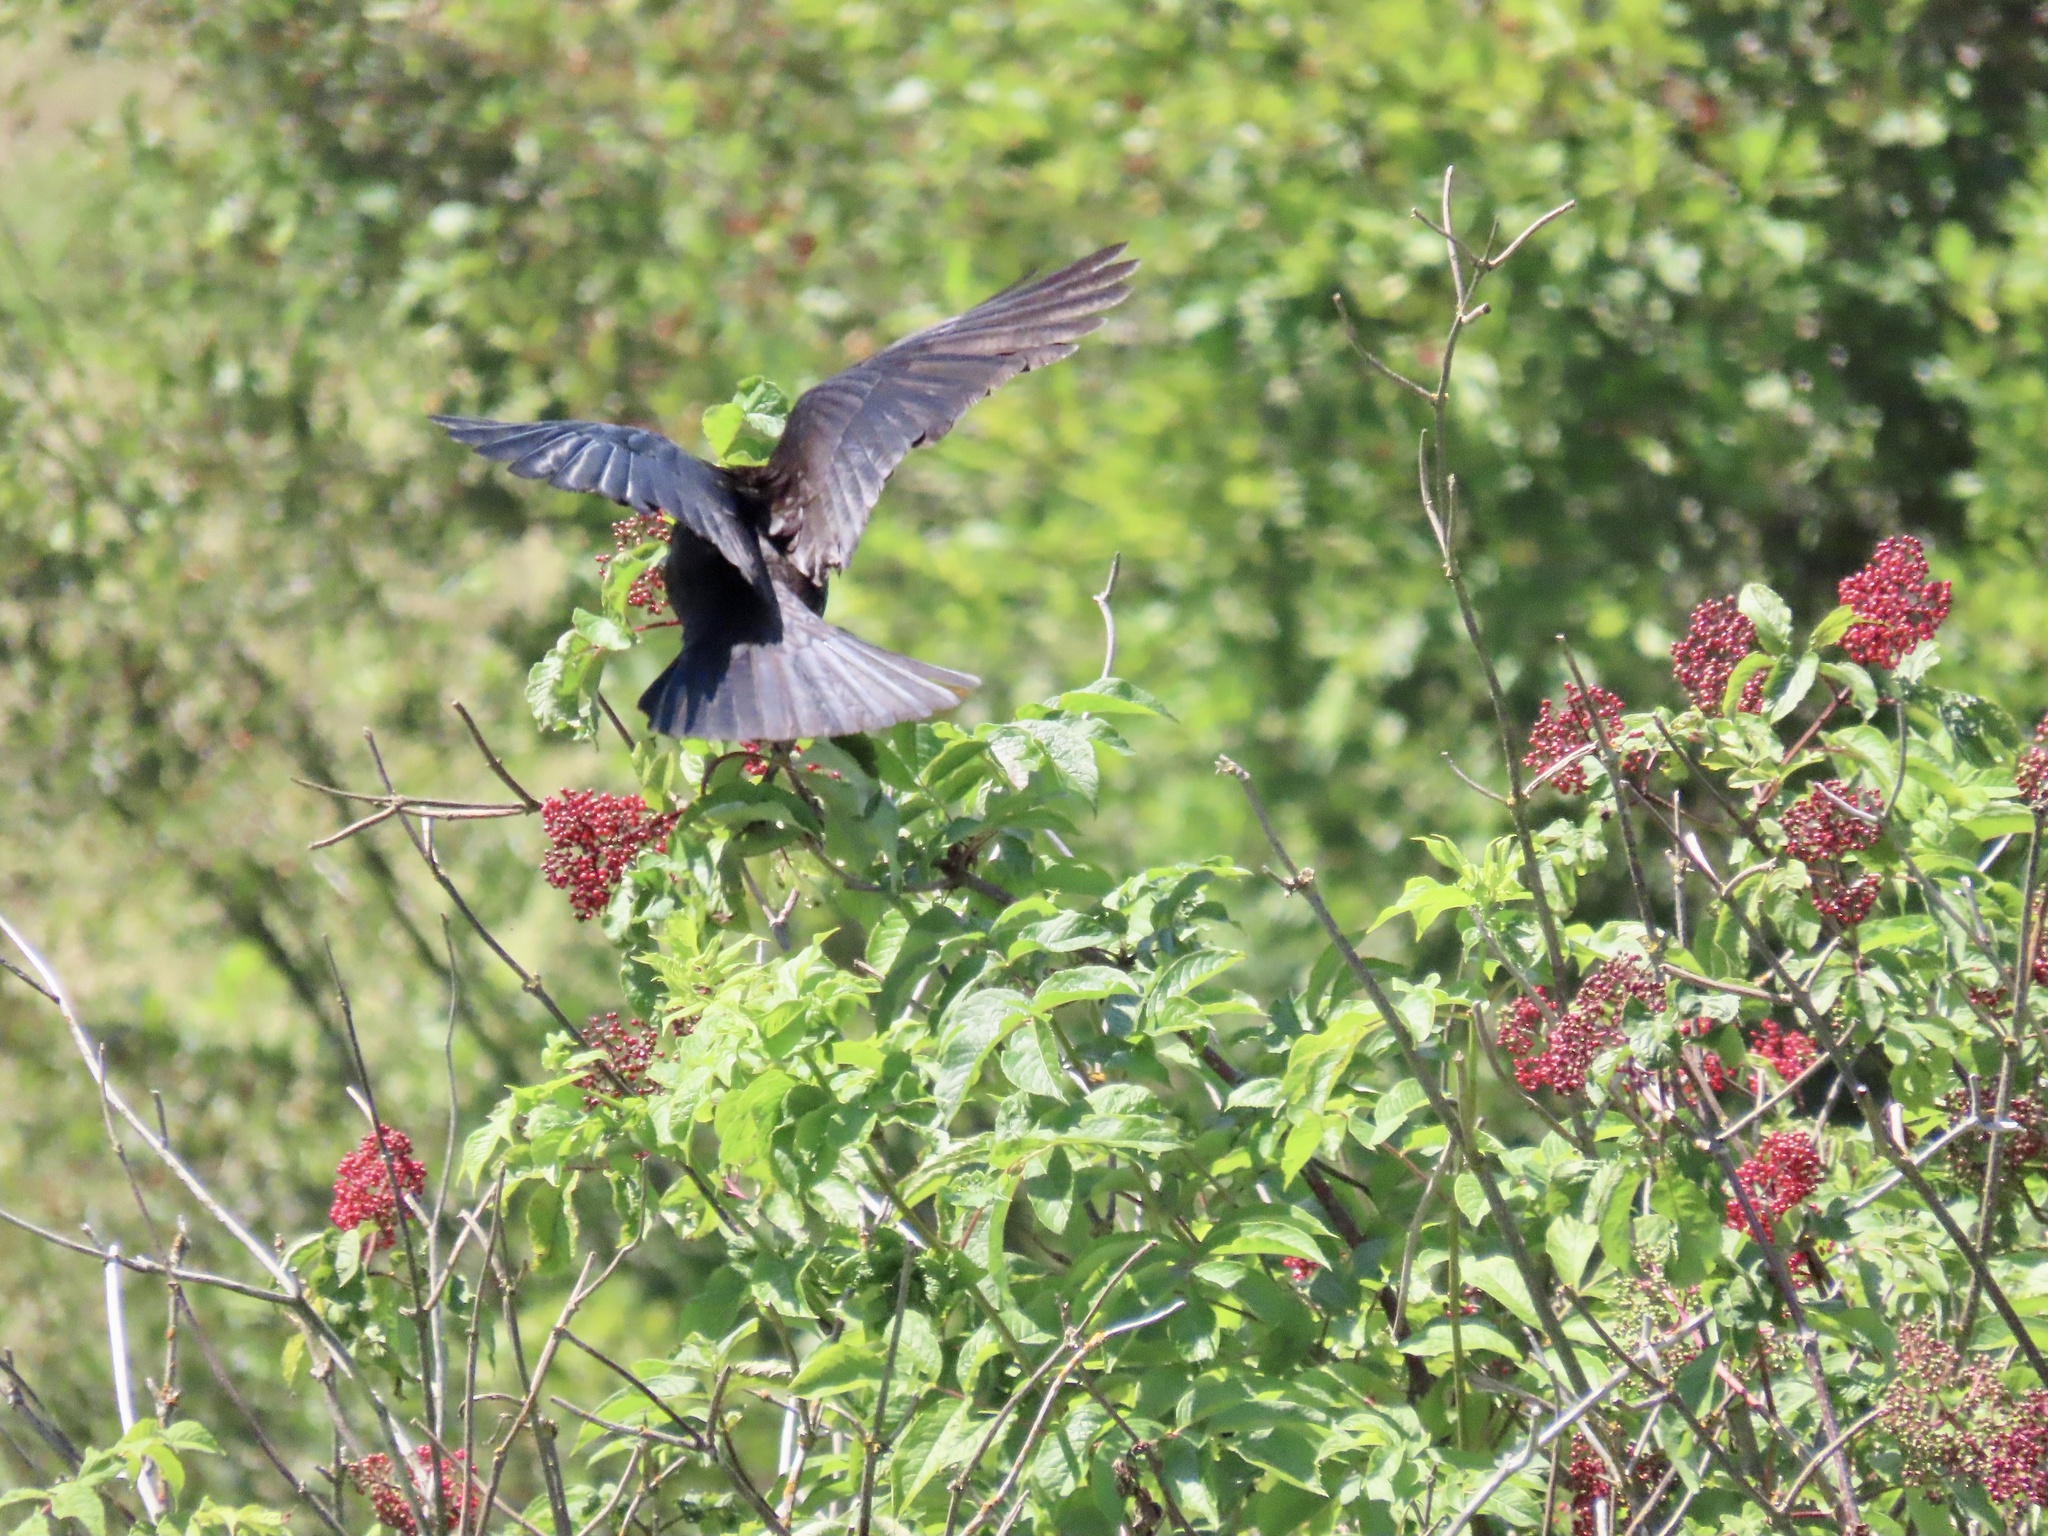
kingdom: Animalia
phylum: Chordata
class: Aves
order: Passeriformes
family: Corvidae
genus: Corvus
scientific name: Corvus brachyrhynchos
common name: American crow
